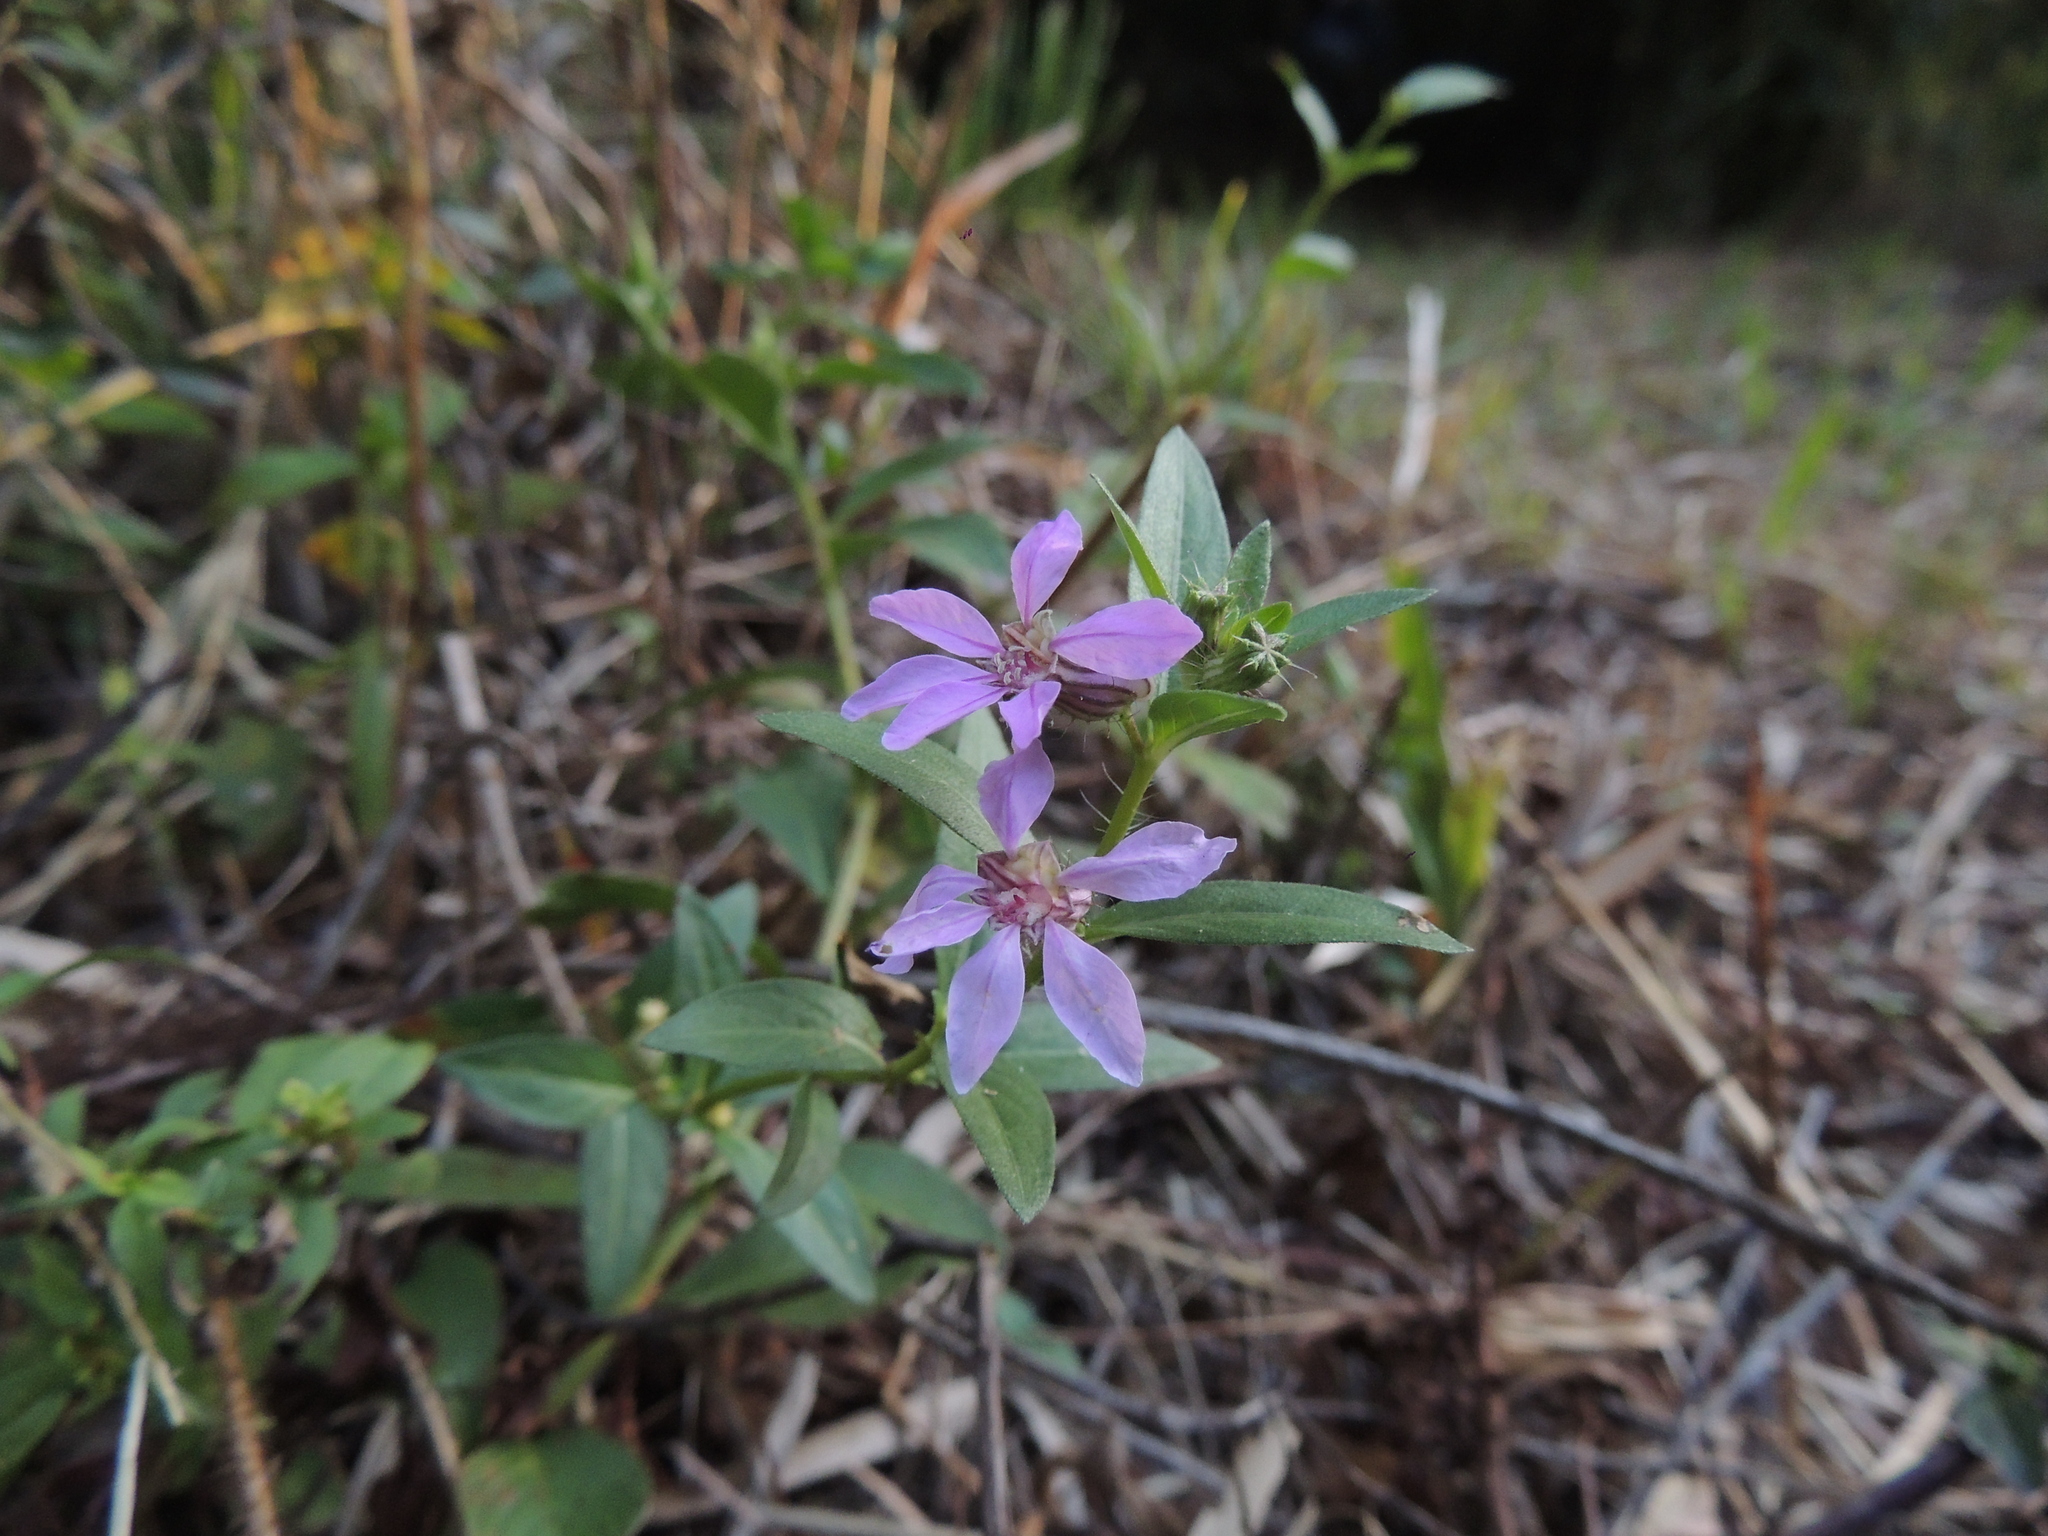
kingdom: Plantae
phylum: Tracheophyta
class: Magnoliopsida
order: Myrtales
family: Lythraceae
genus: Cuphea
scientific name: Cuphea campylocentra
